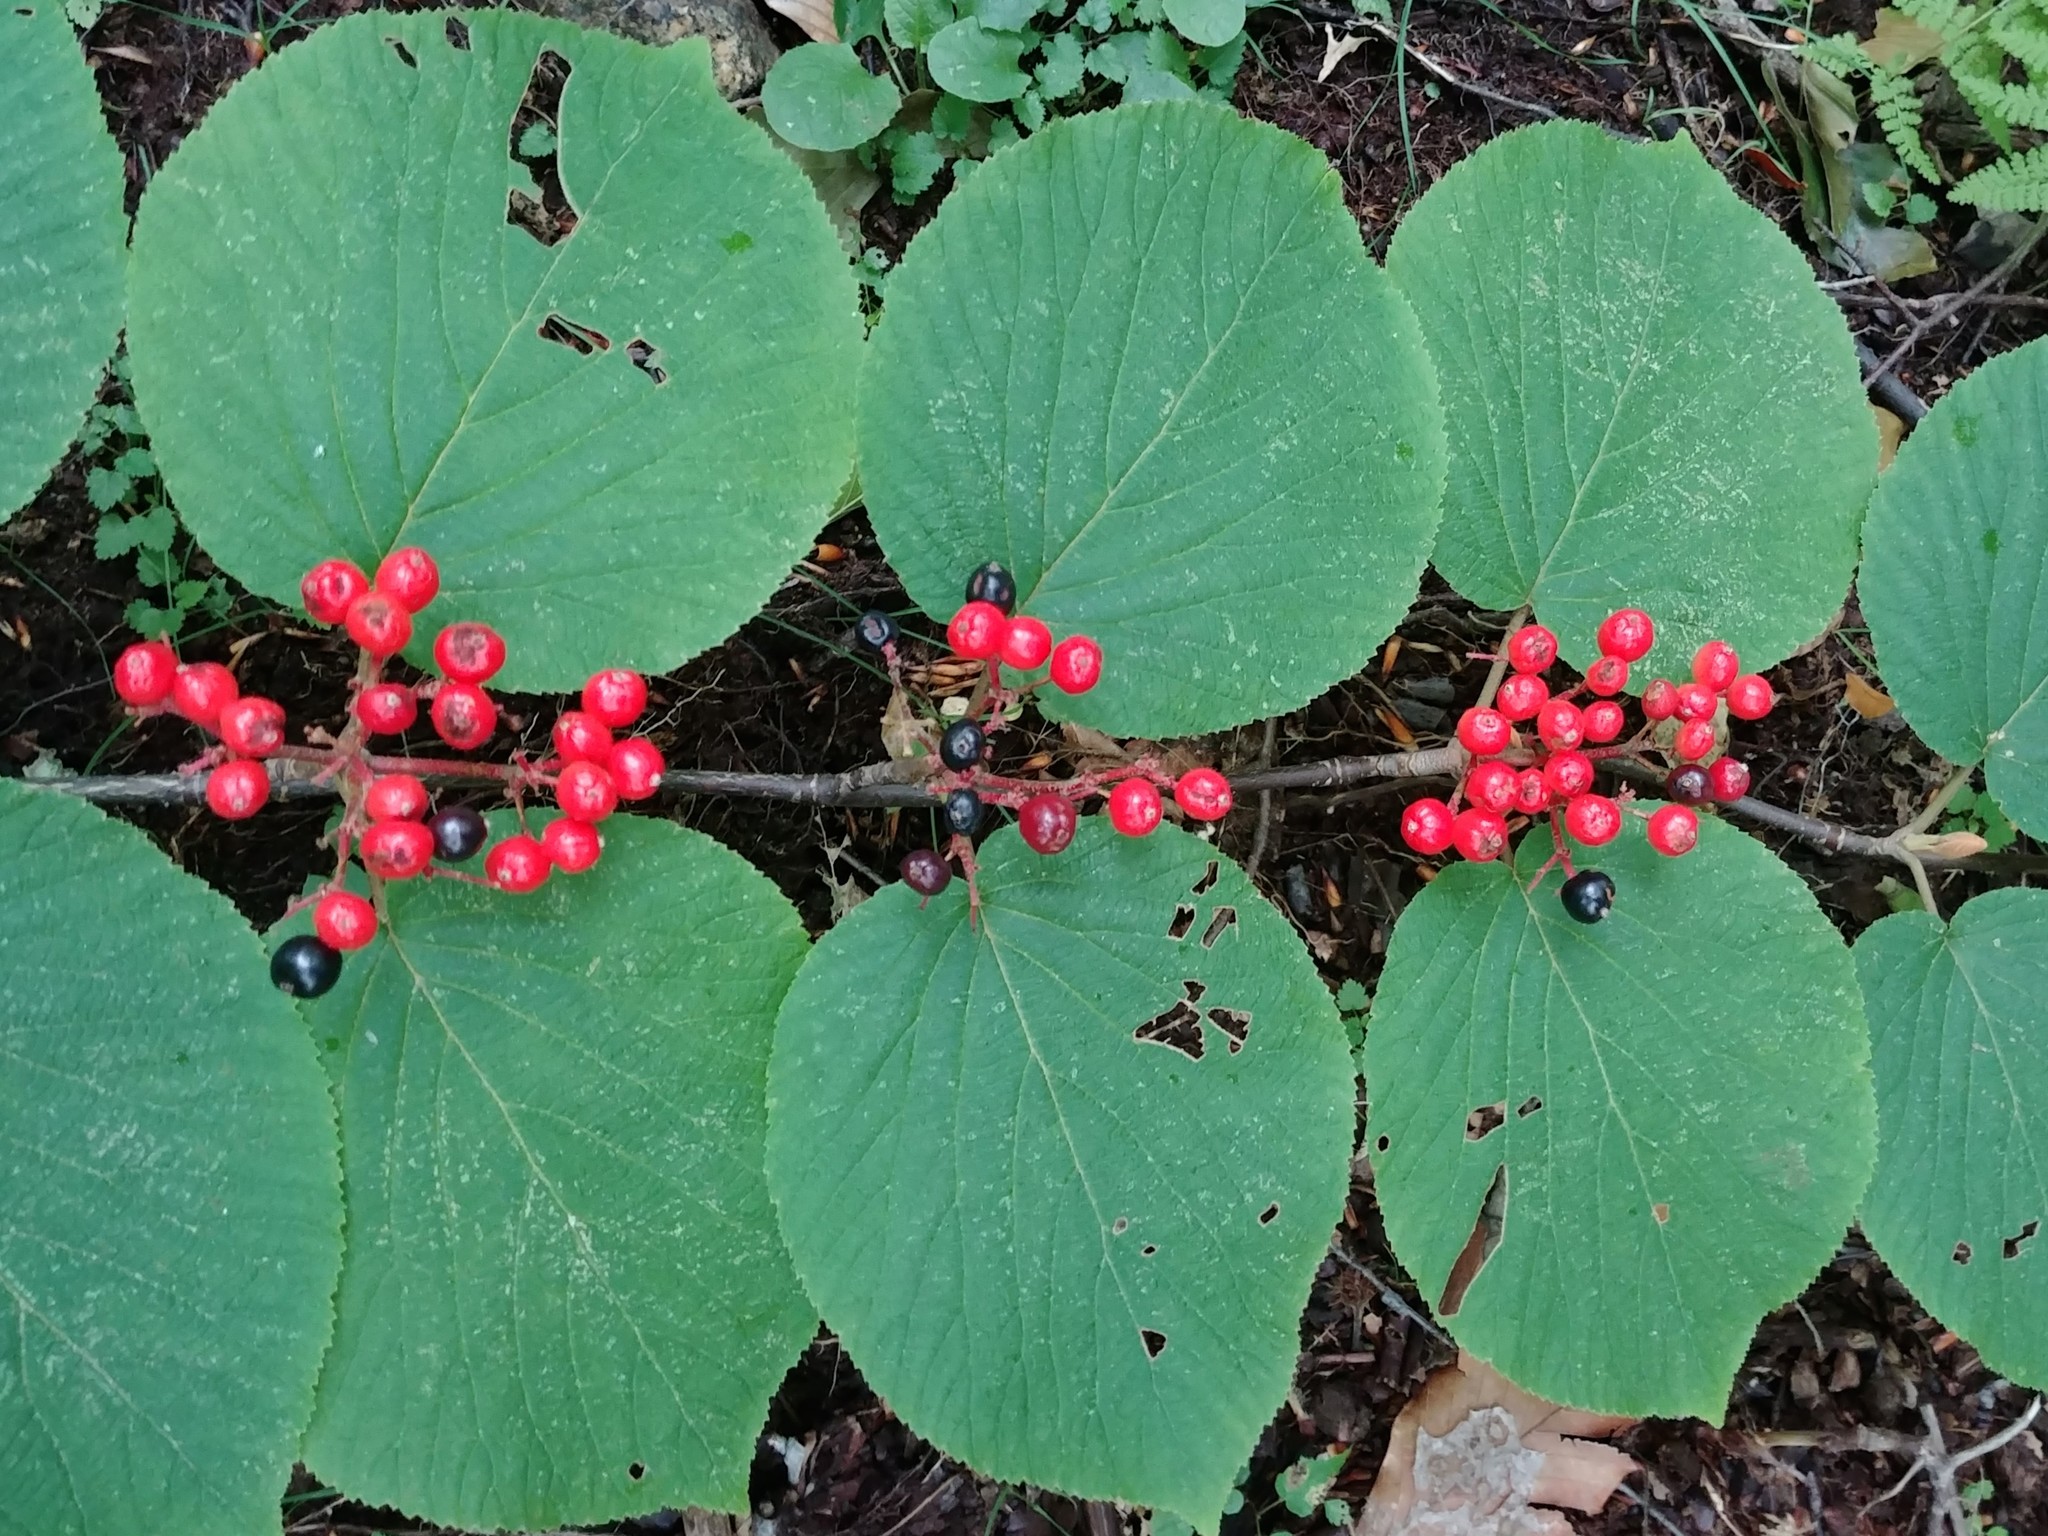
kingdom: Plantae
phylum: Tracheophyta
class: Magnoliopsida
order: Dipsacales
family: Viburnaceae
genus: Viburnum
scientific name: Viburnum lantanoides
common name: Hobblebush
